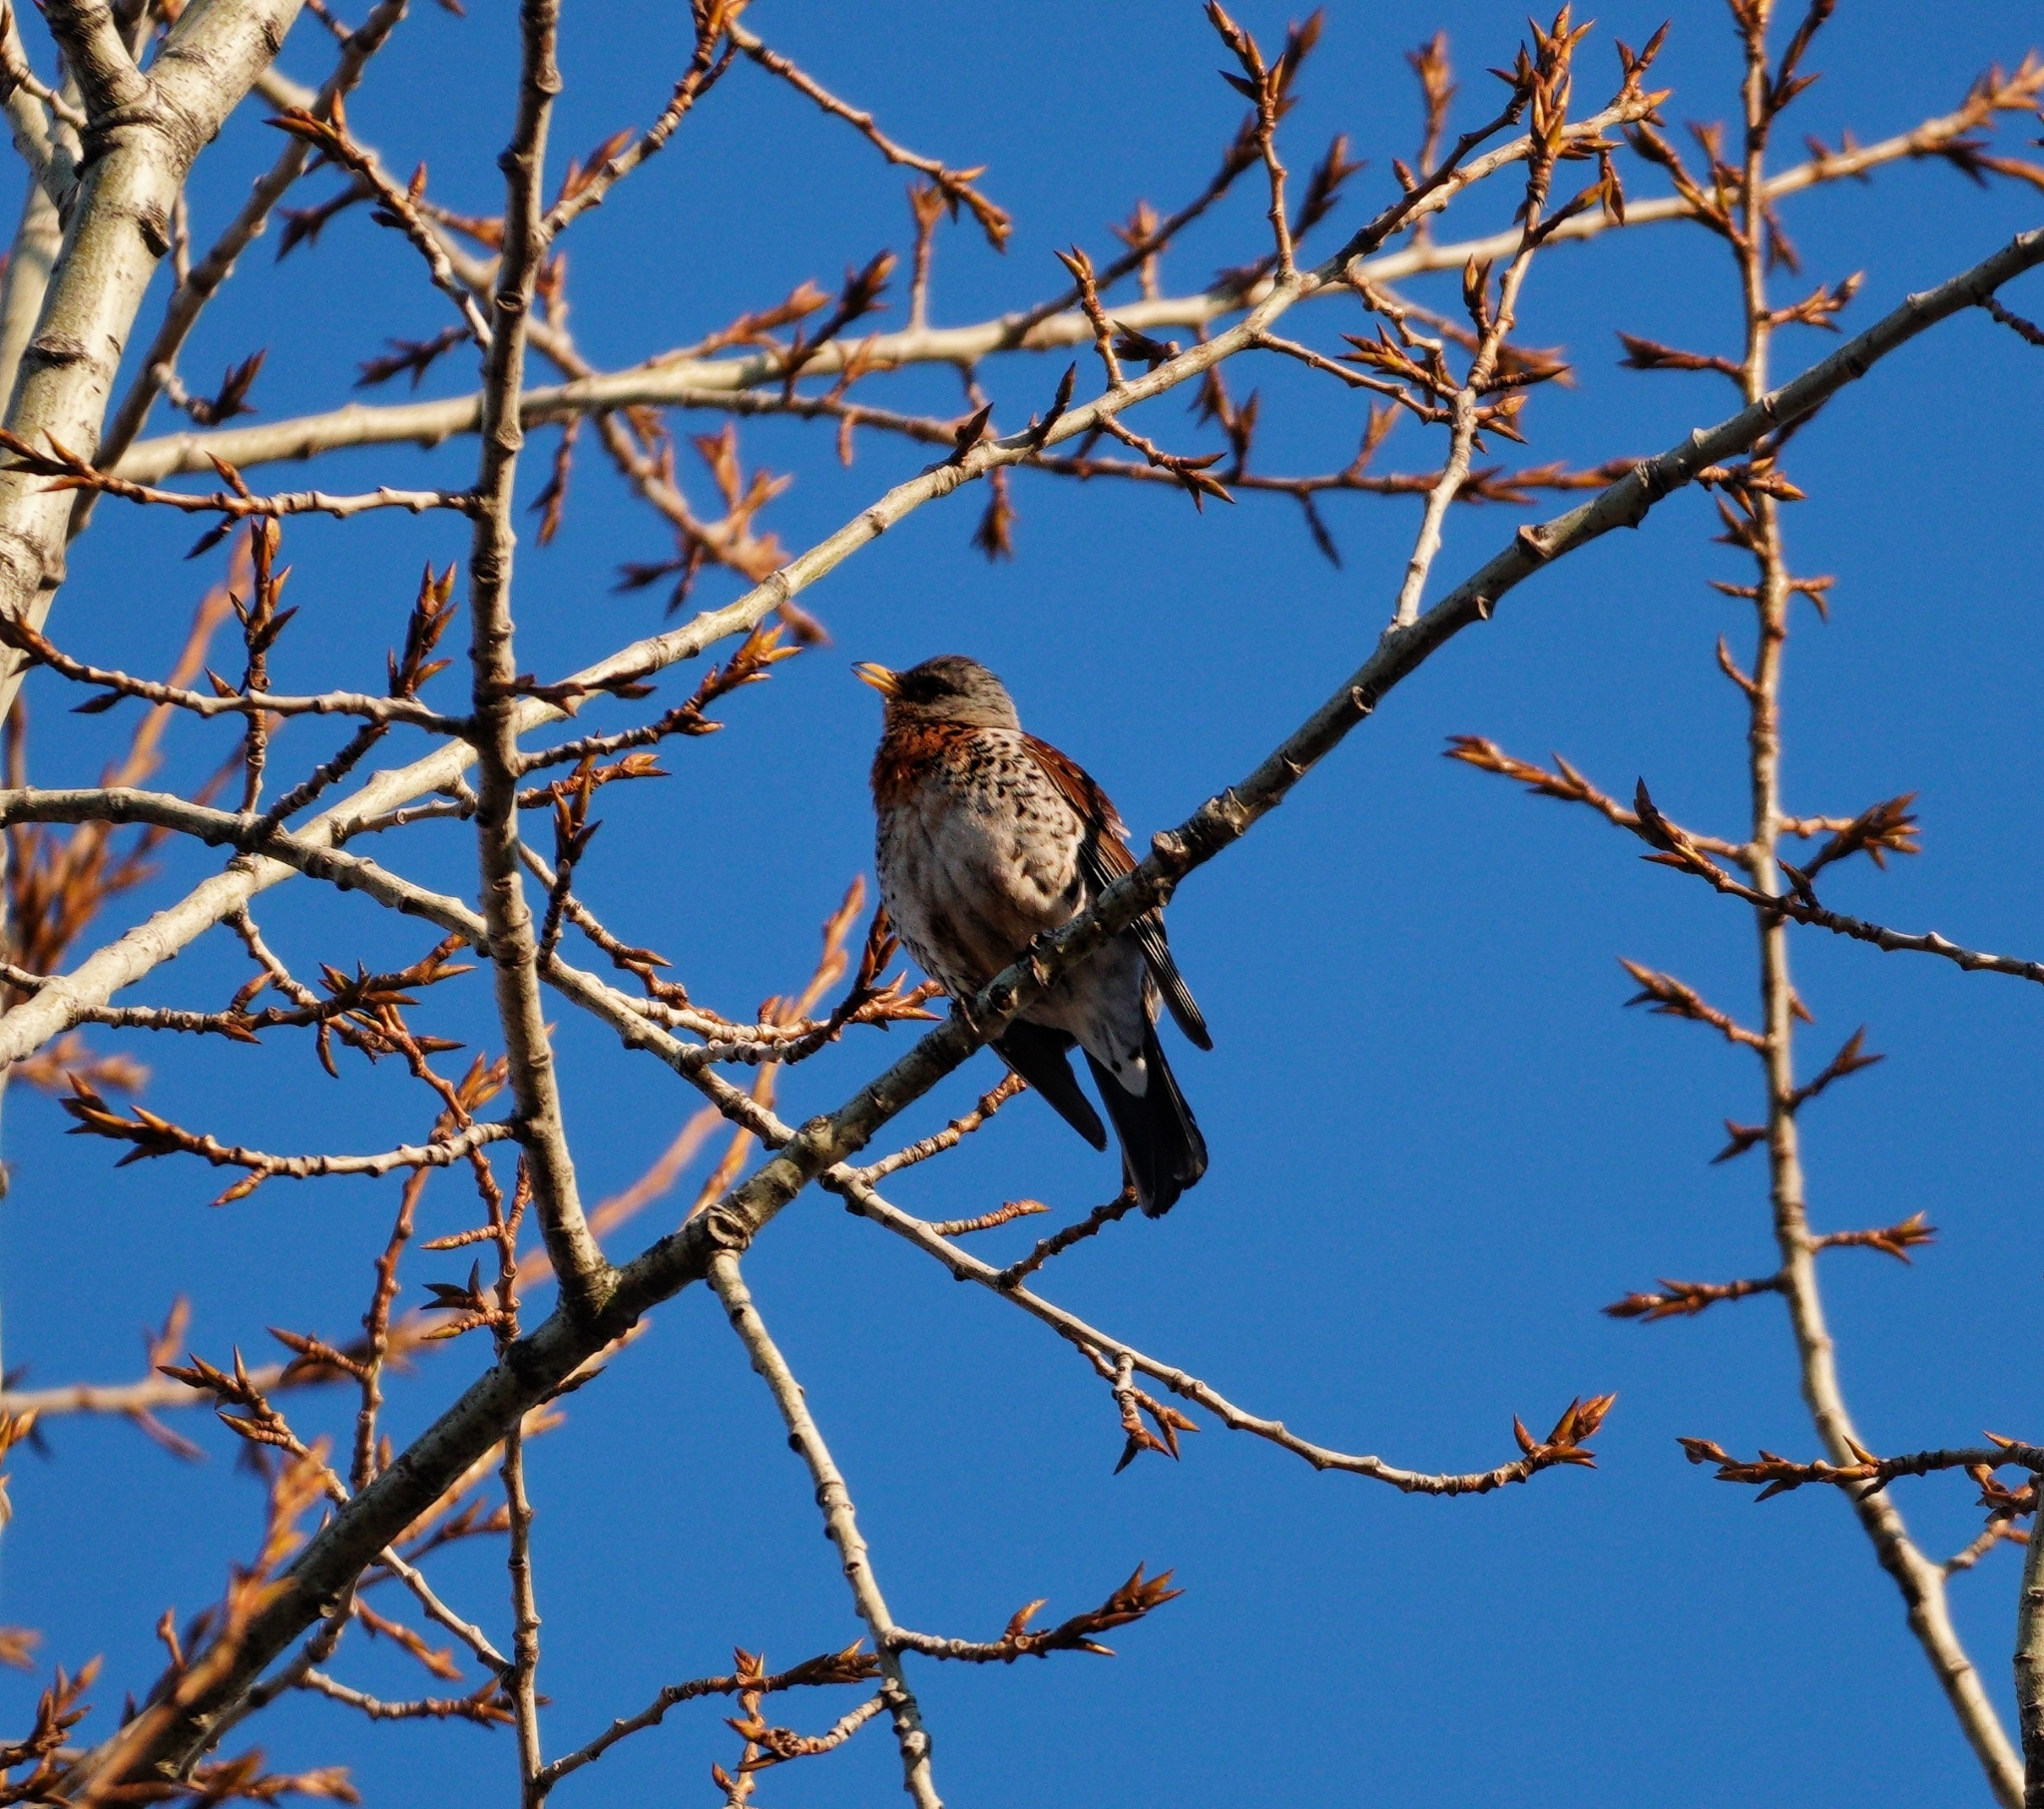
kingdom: Animalia
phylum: Chordata
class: Aves
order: Passeriformes
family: Turdidae
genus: Turdus
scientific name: Turdus pilaris
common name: Fieldfare
